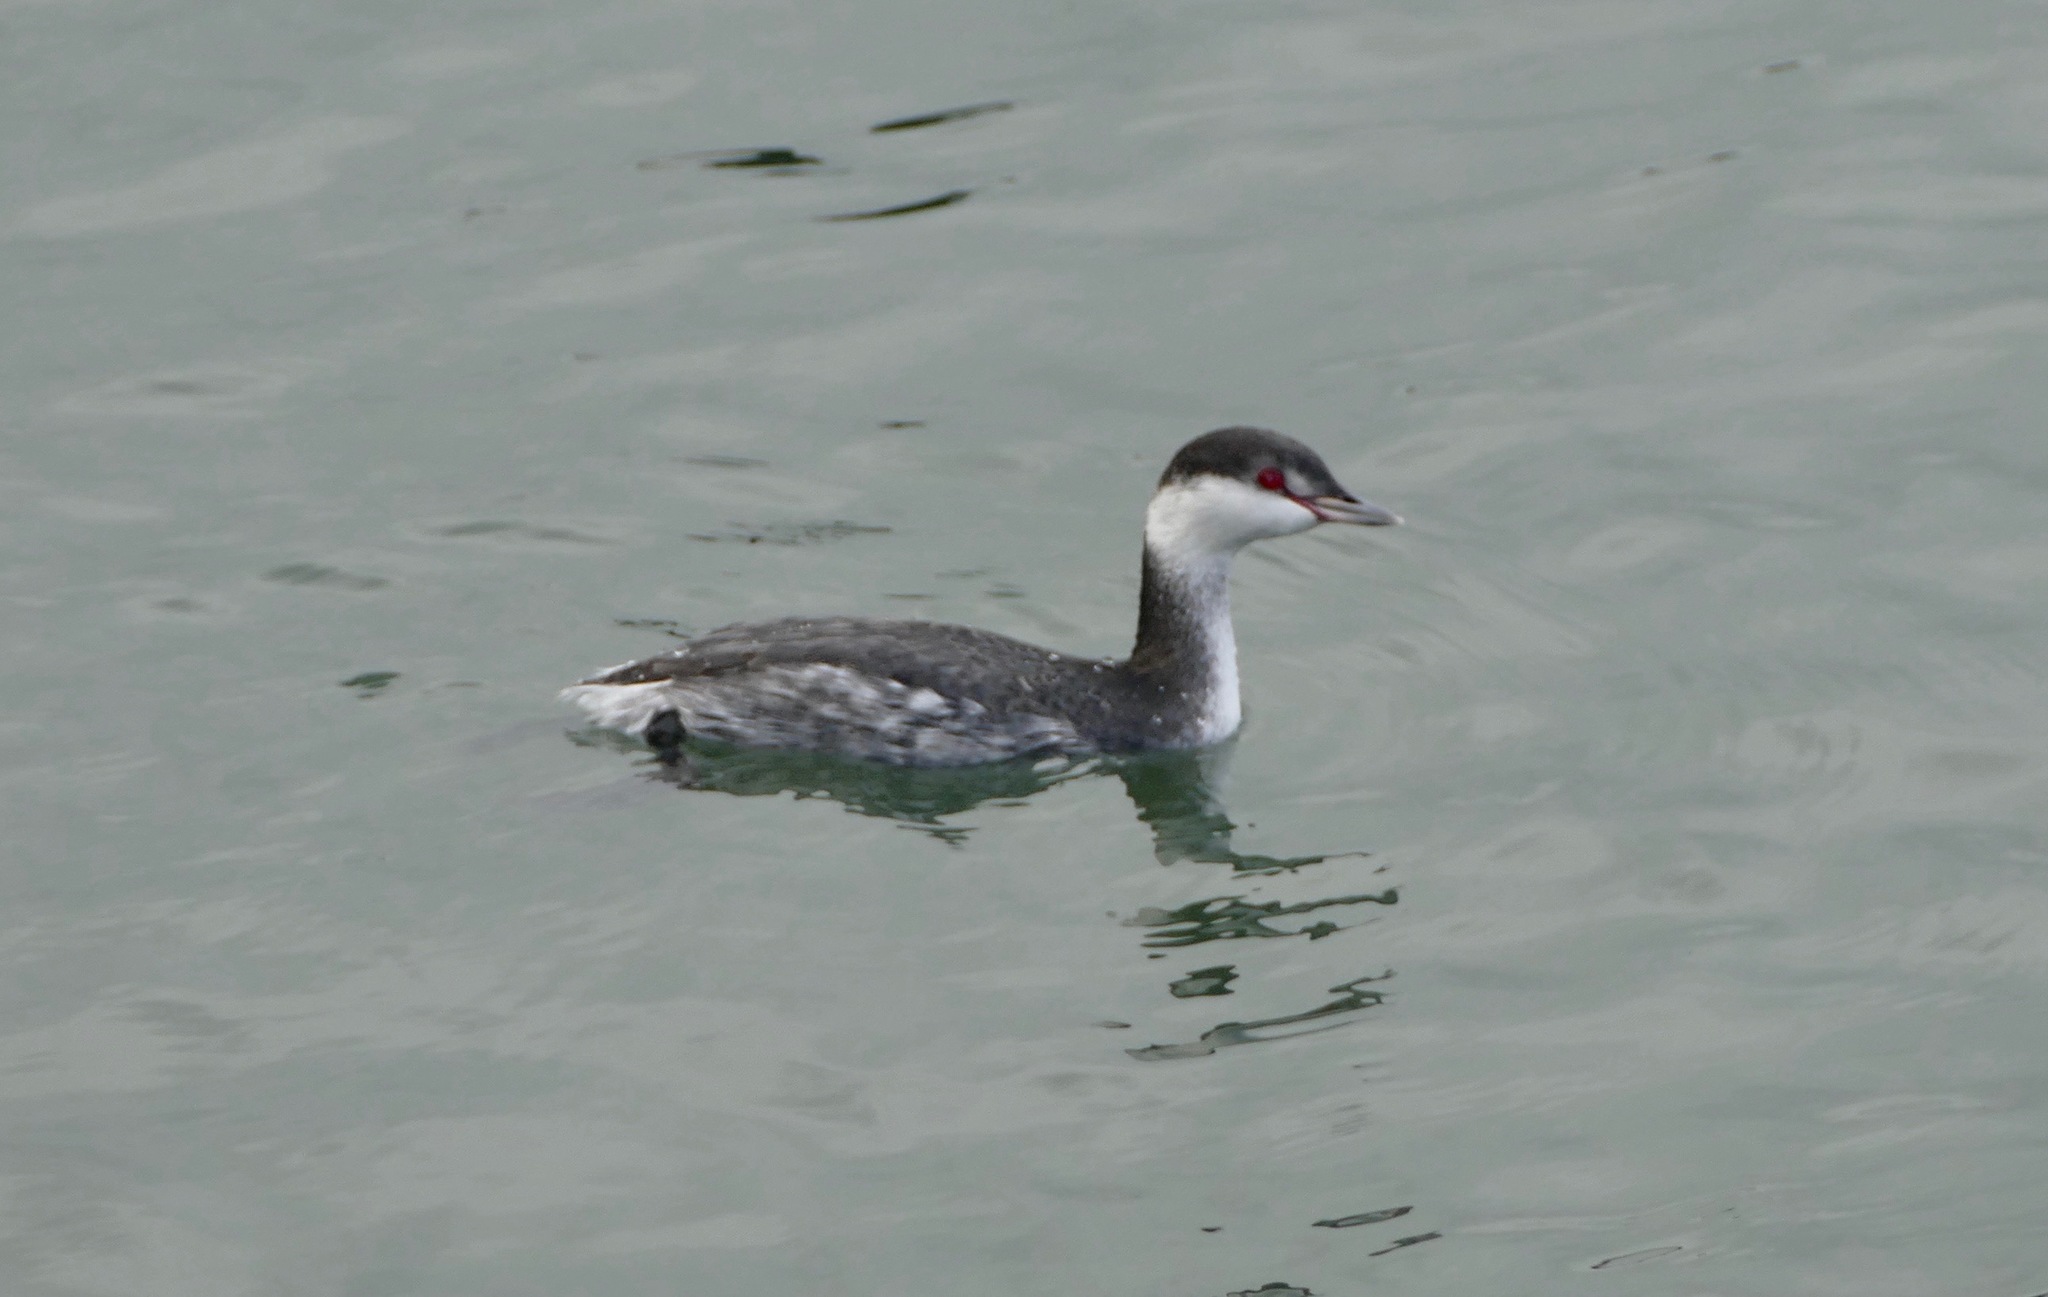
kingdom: Animalia
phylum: Chordata
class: Aves
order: Podicipediformes
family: Podicipedidae
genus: Podiceps
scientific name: Podiceps auritus
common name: Horned grebe
